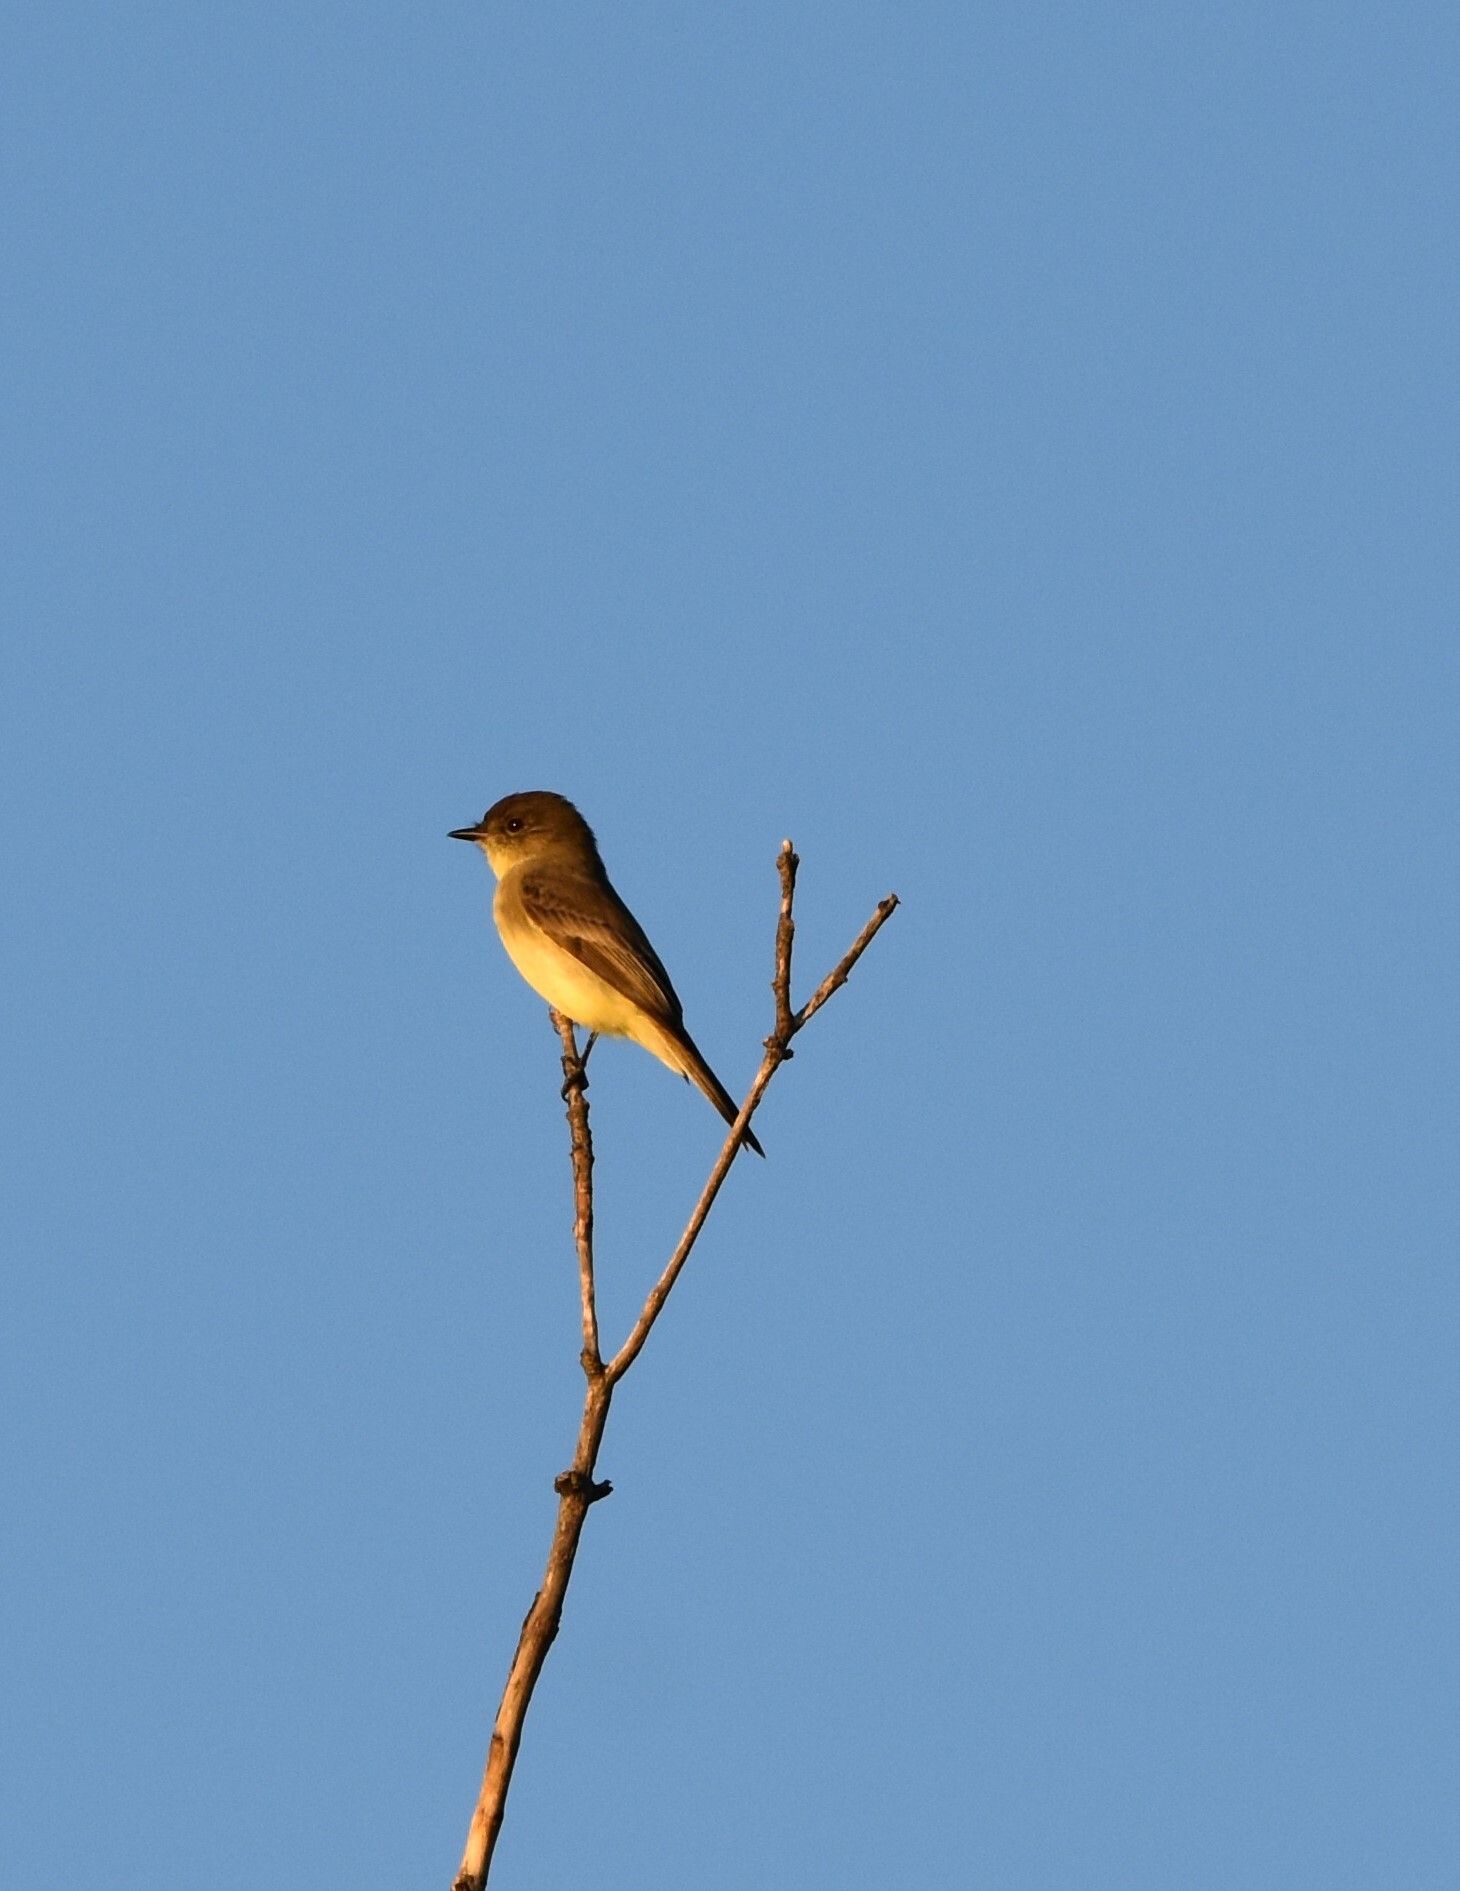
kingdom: Animalia
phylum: Chordata
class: Aves
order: Passeriformes
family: Tyrannidae
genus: Sayornis
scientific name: Sayornis phoebe
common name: Eastern phoebe
